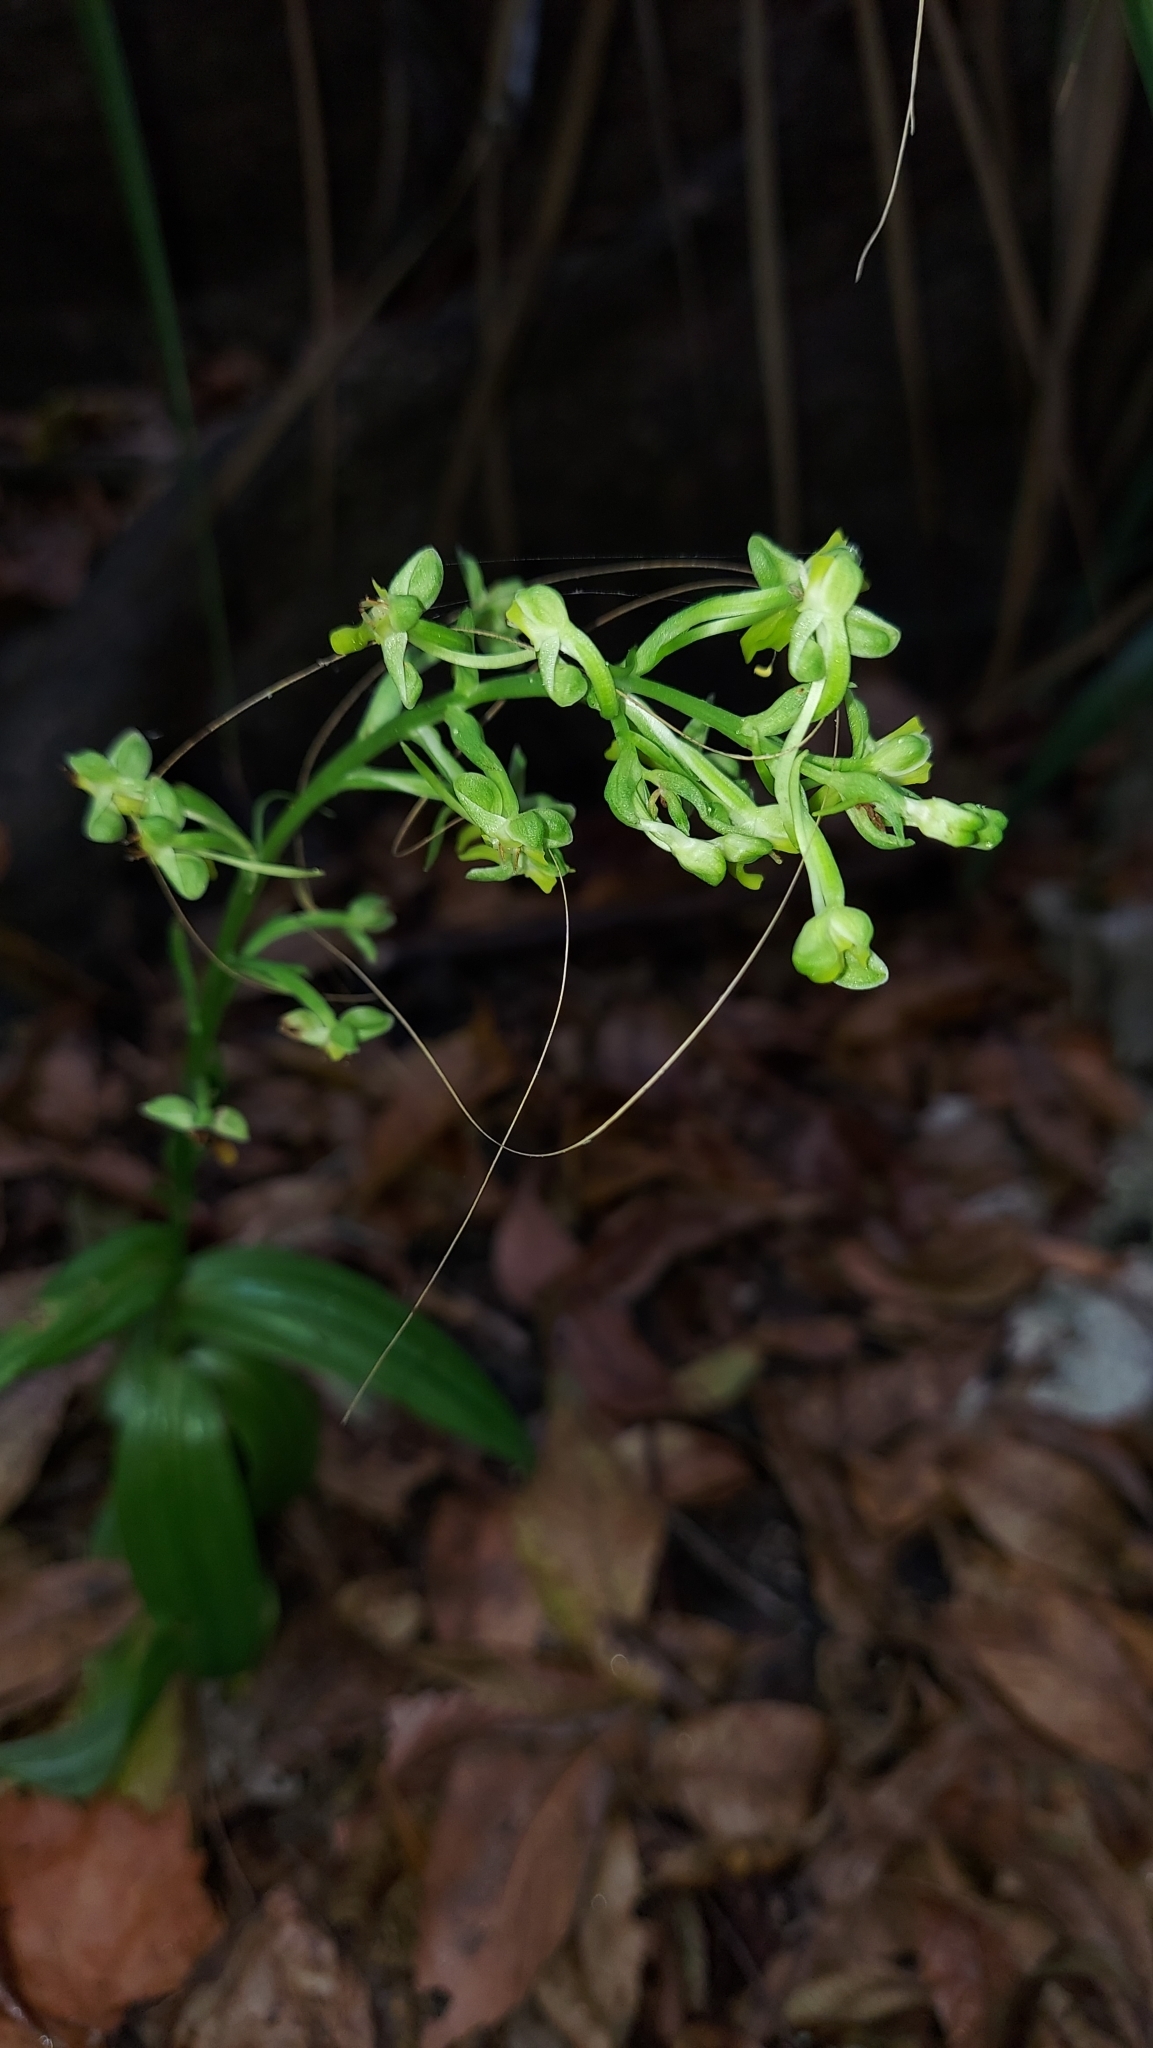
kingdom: Plantae
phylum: Tracheophyta
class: Liliopsida
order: Asparagales
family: Orchidaceae
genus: Habenaria
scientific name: Habenaria floribunda
